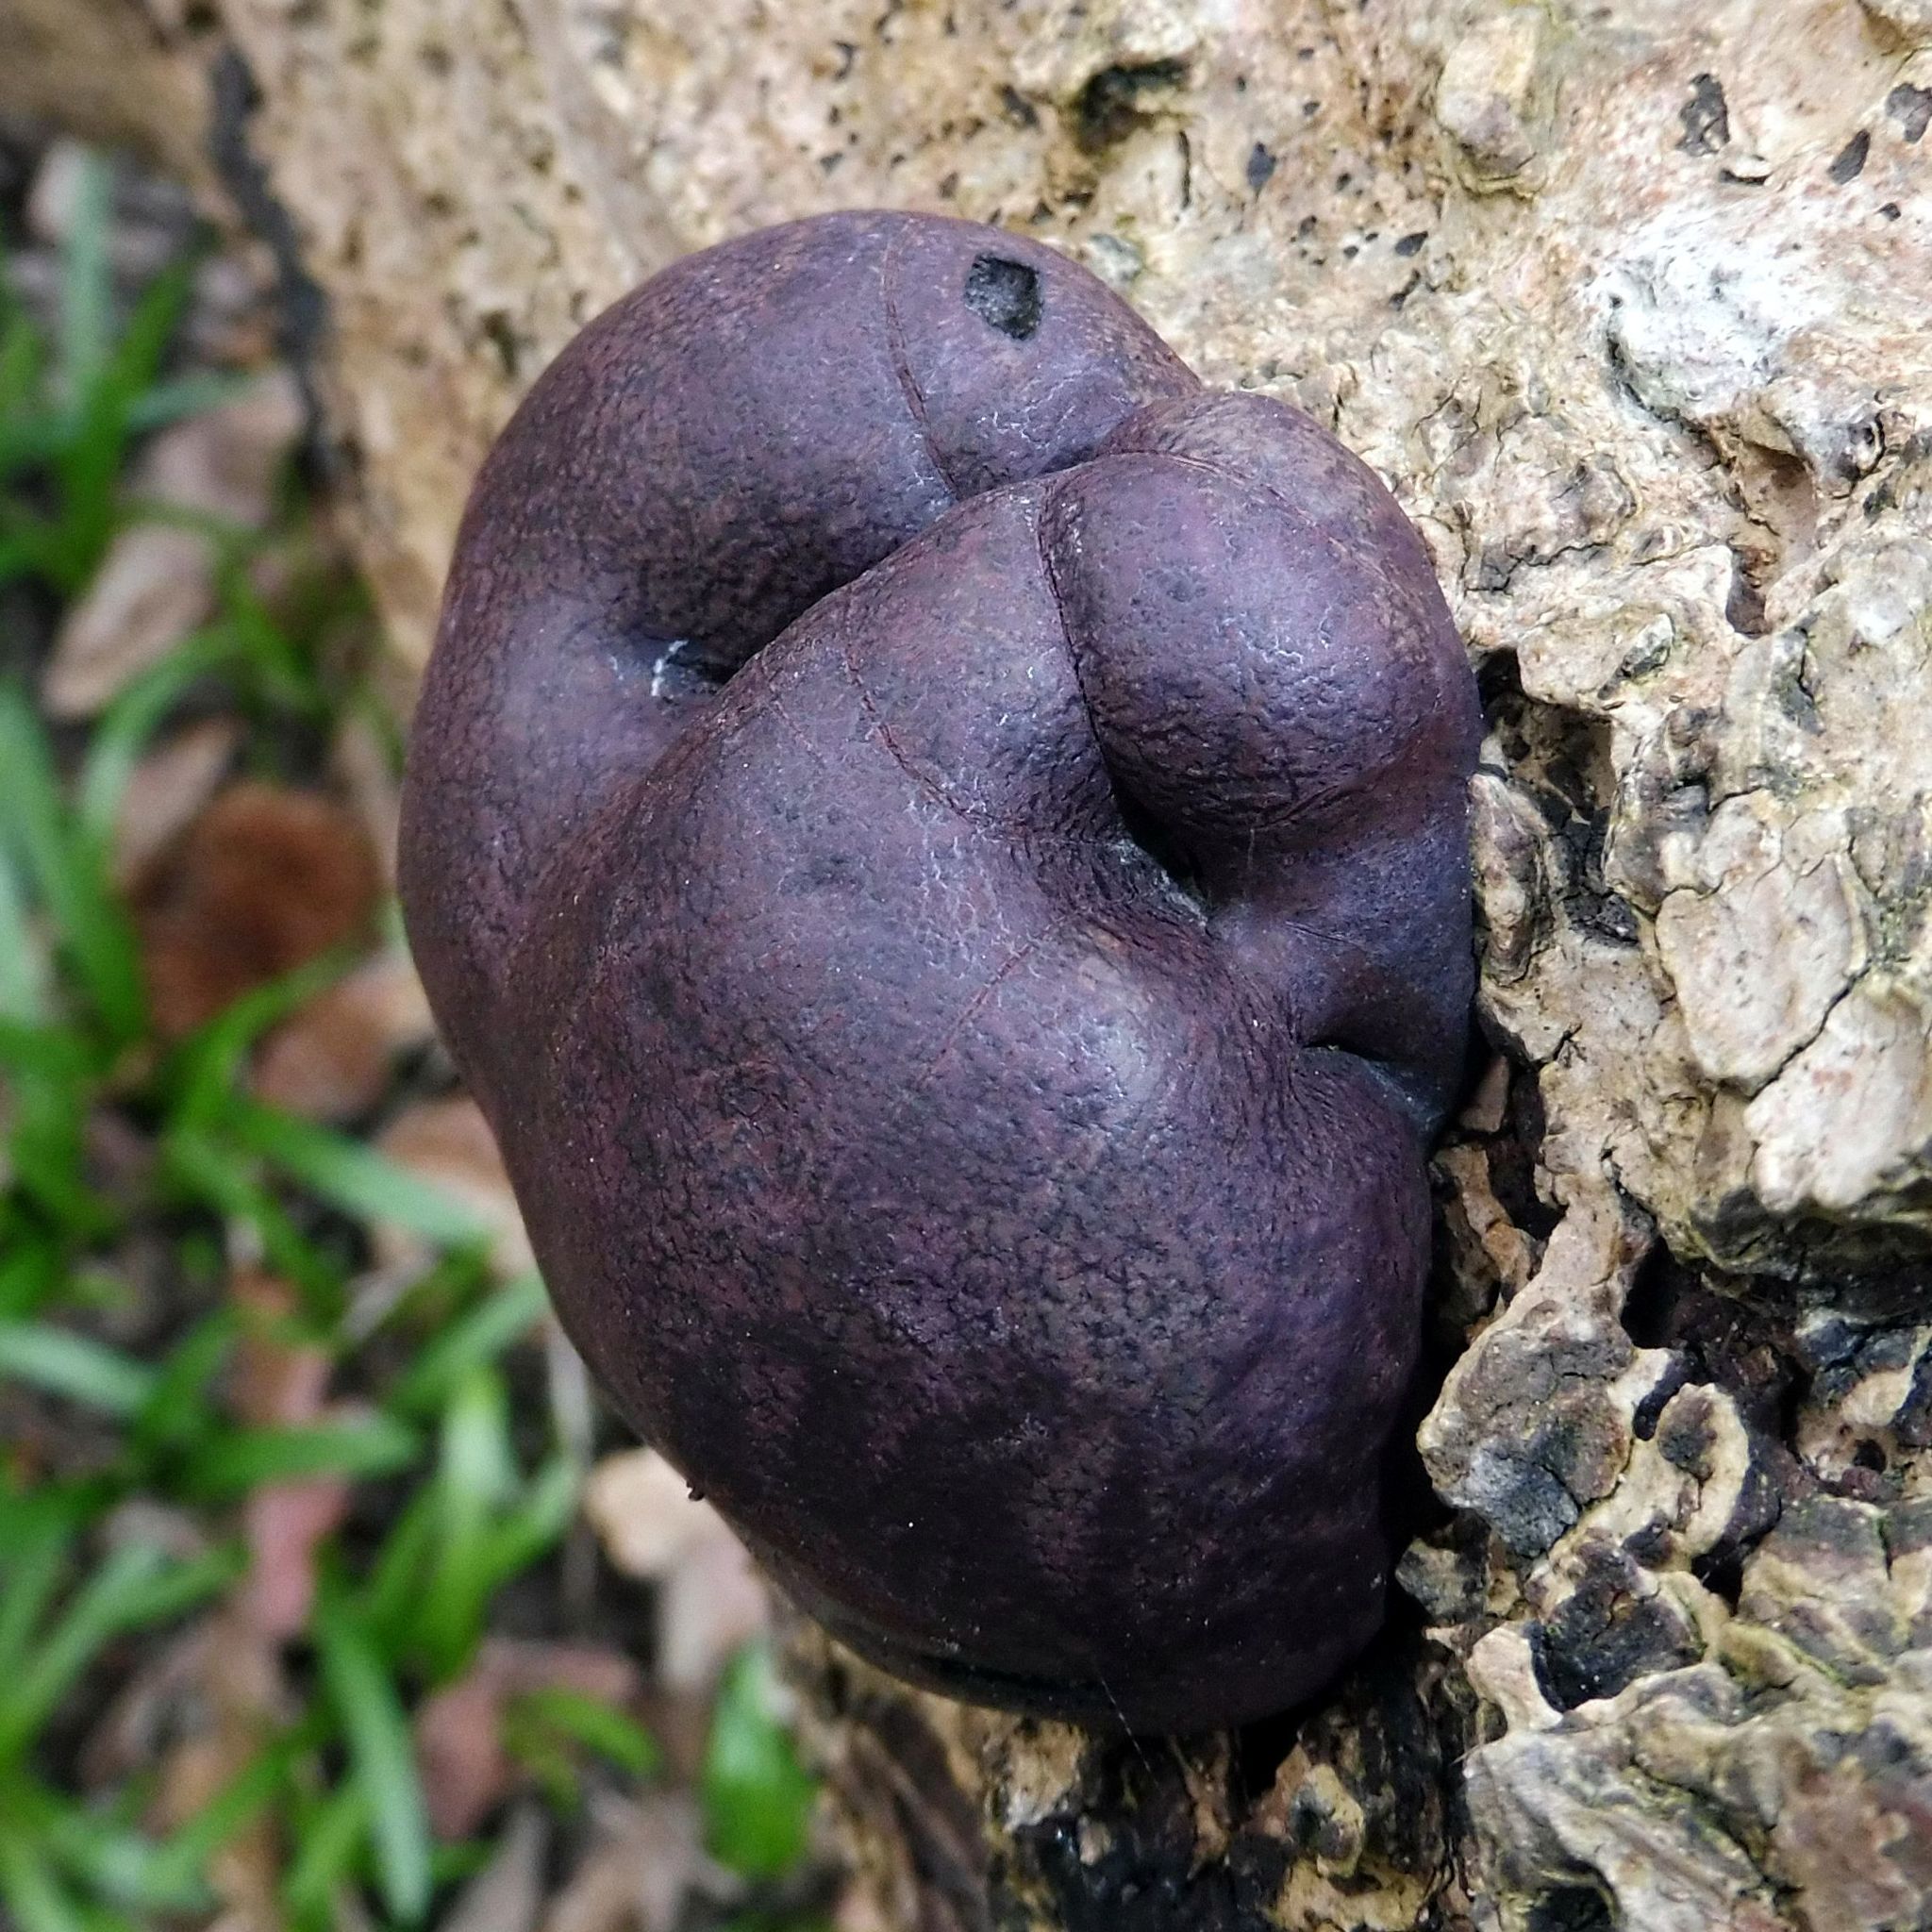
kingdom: Fungi
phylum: Ascomycota
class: Sordariomycetes
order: Xylariales
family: Hypoxylaceae
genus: Daldinia
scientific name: Daldinia concentrica
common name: Cramp balls
